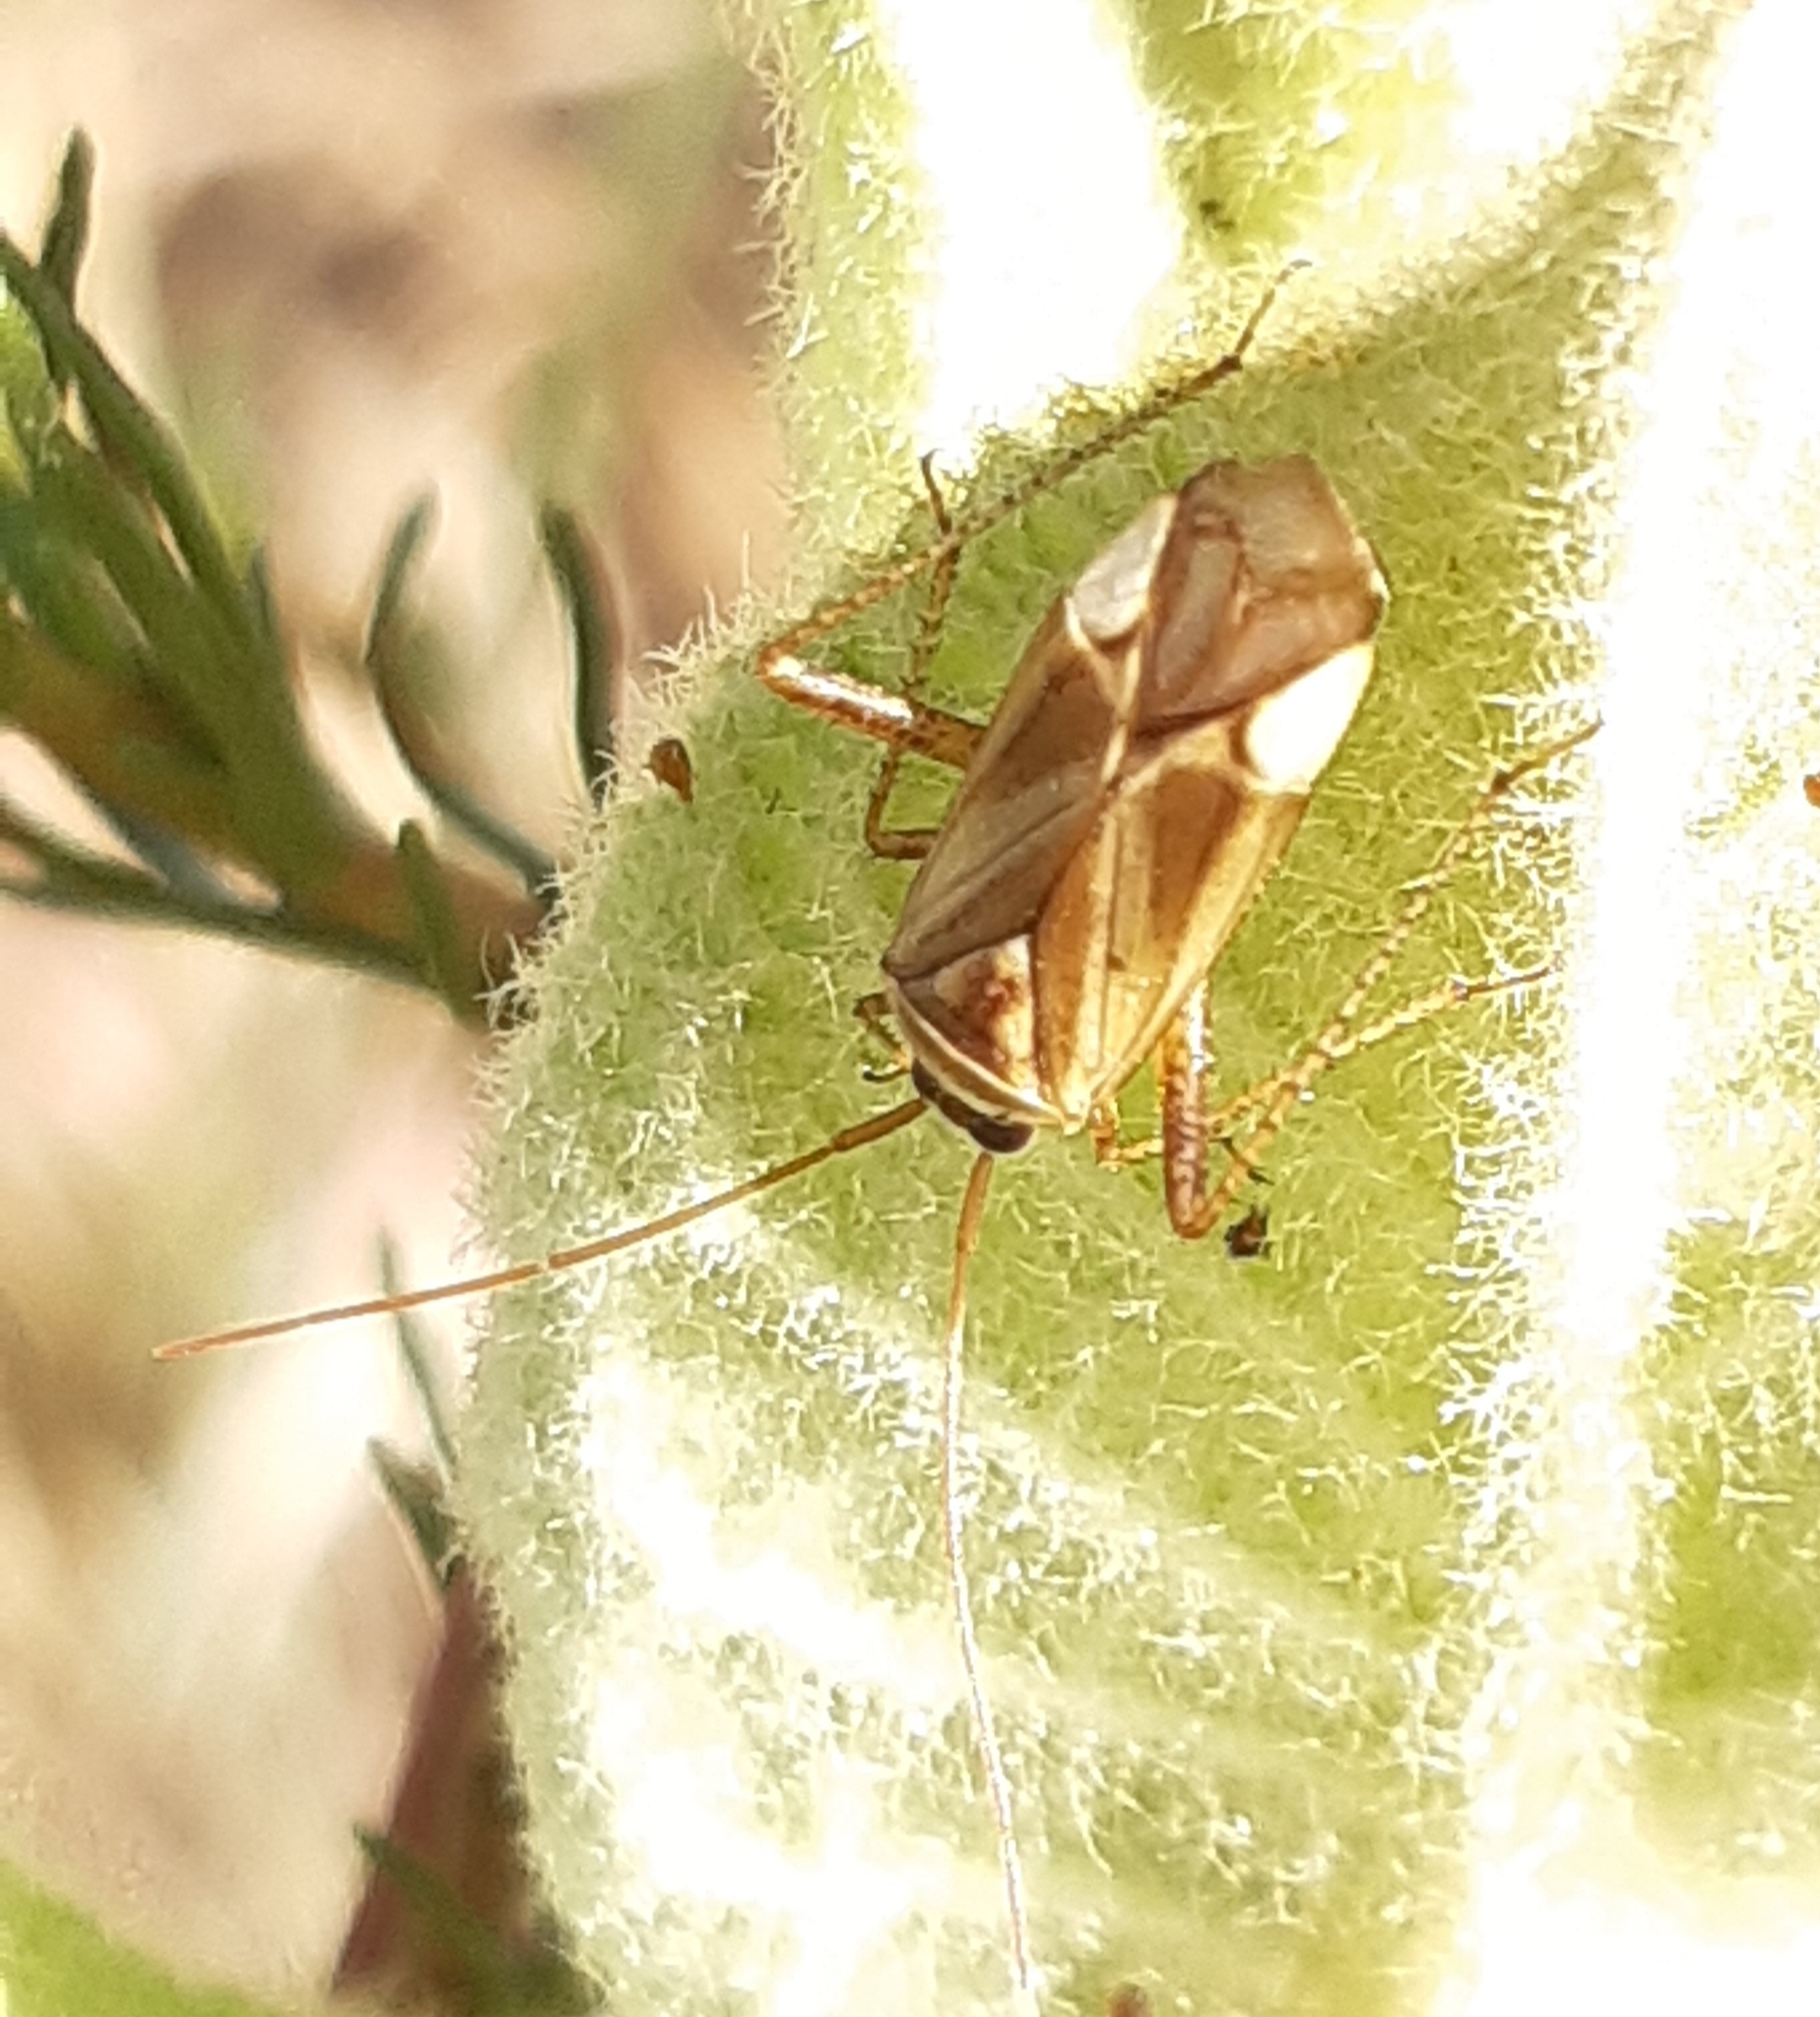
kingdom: Animalia
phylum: Arthropoda
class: Insecta
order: Hemiptera
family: Miridae
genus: Adelphocoris
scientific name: Adelphocoris lineolatus
